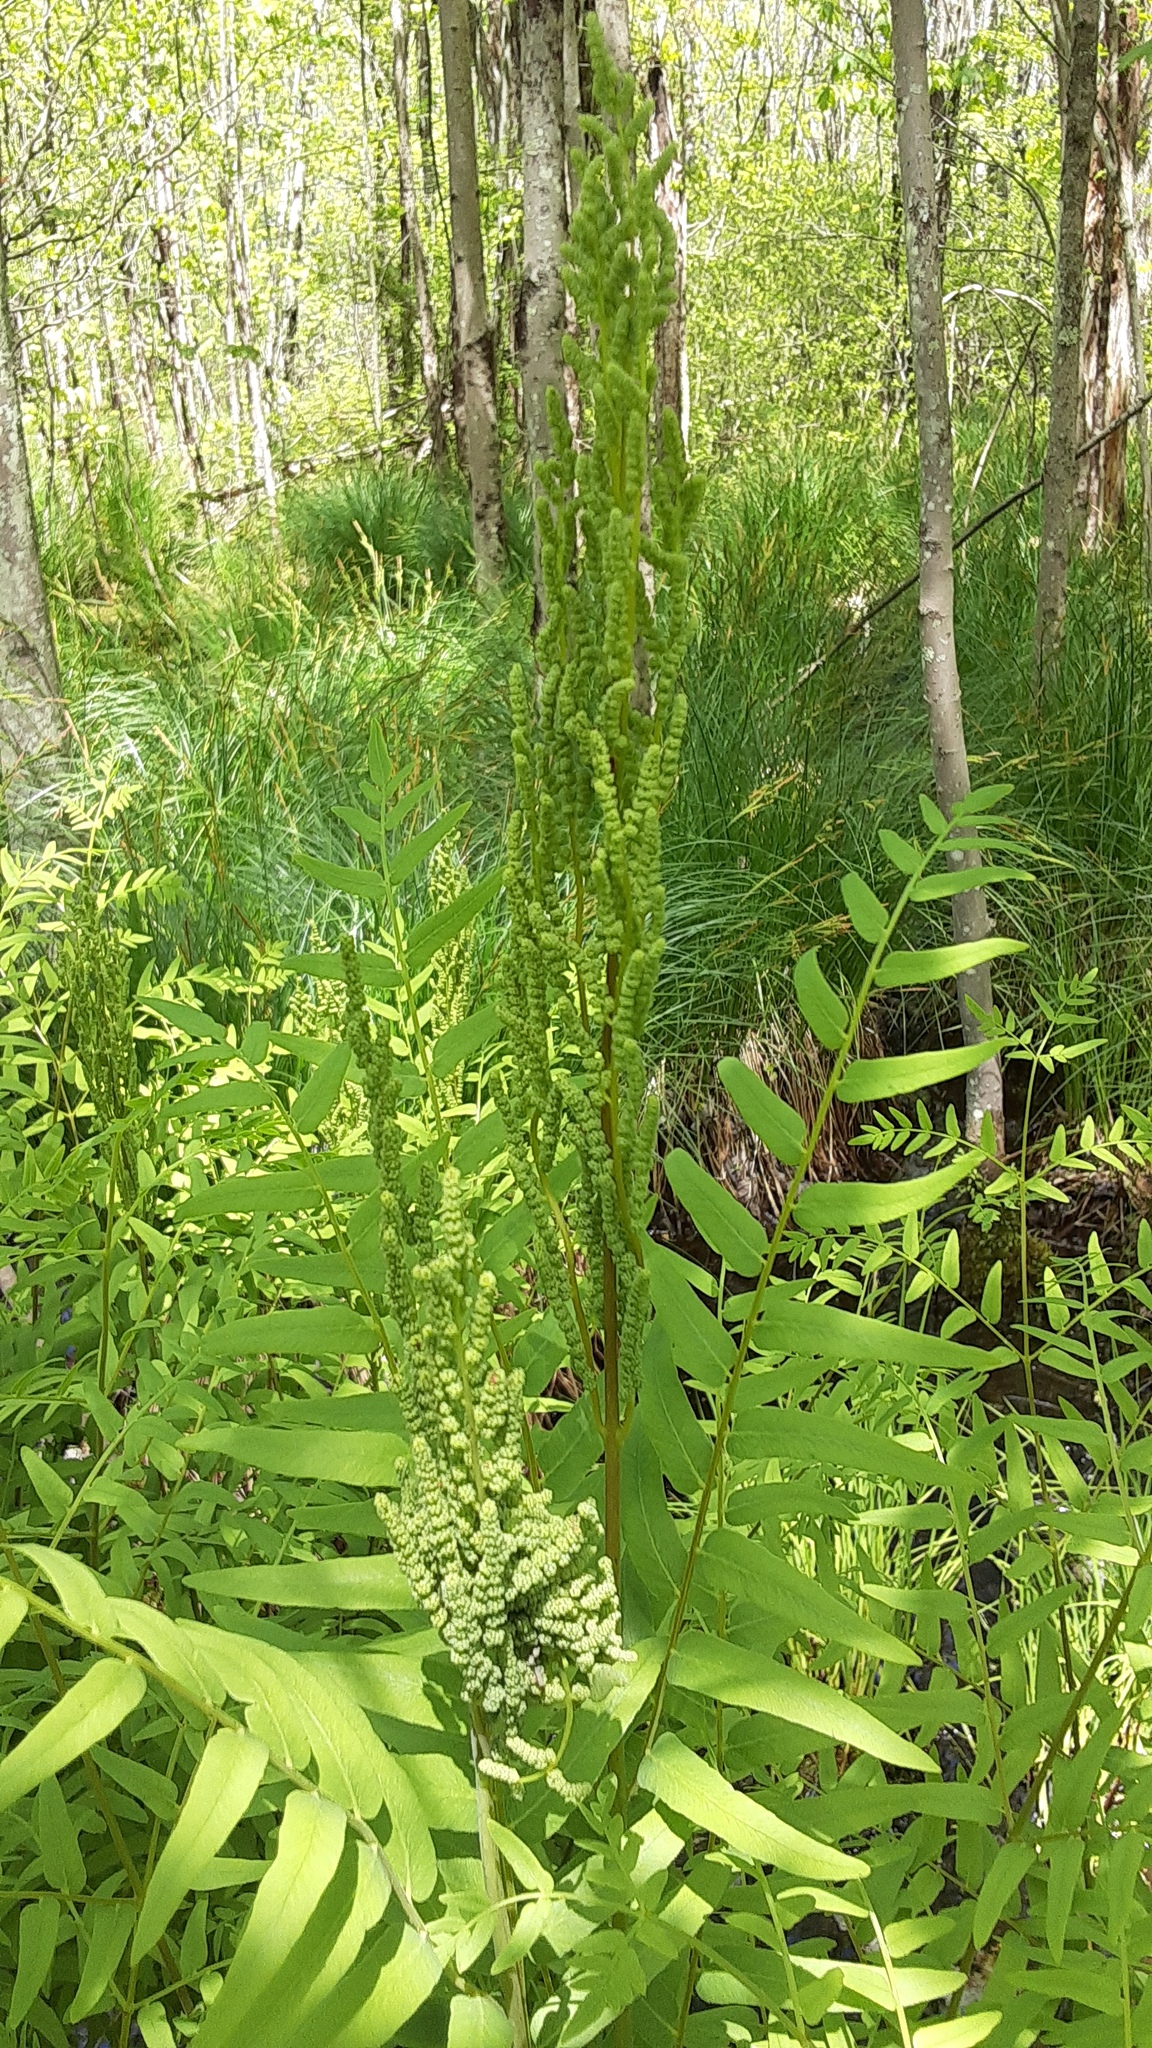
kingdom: Plantae
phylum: Tracheophyta
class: Polypodiopsida
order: Osmundales
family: Osmundaceae
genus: Osmunda
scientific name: Osmunda spectabilis
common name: American royal fern
